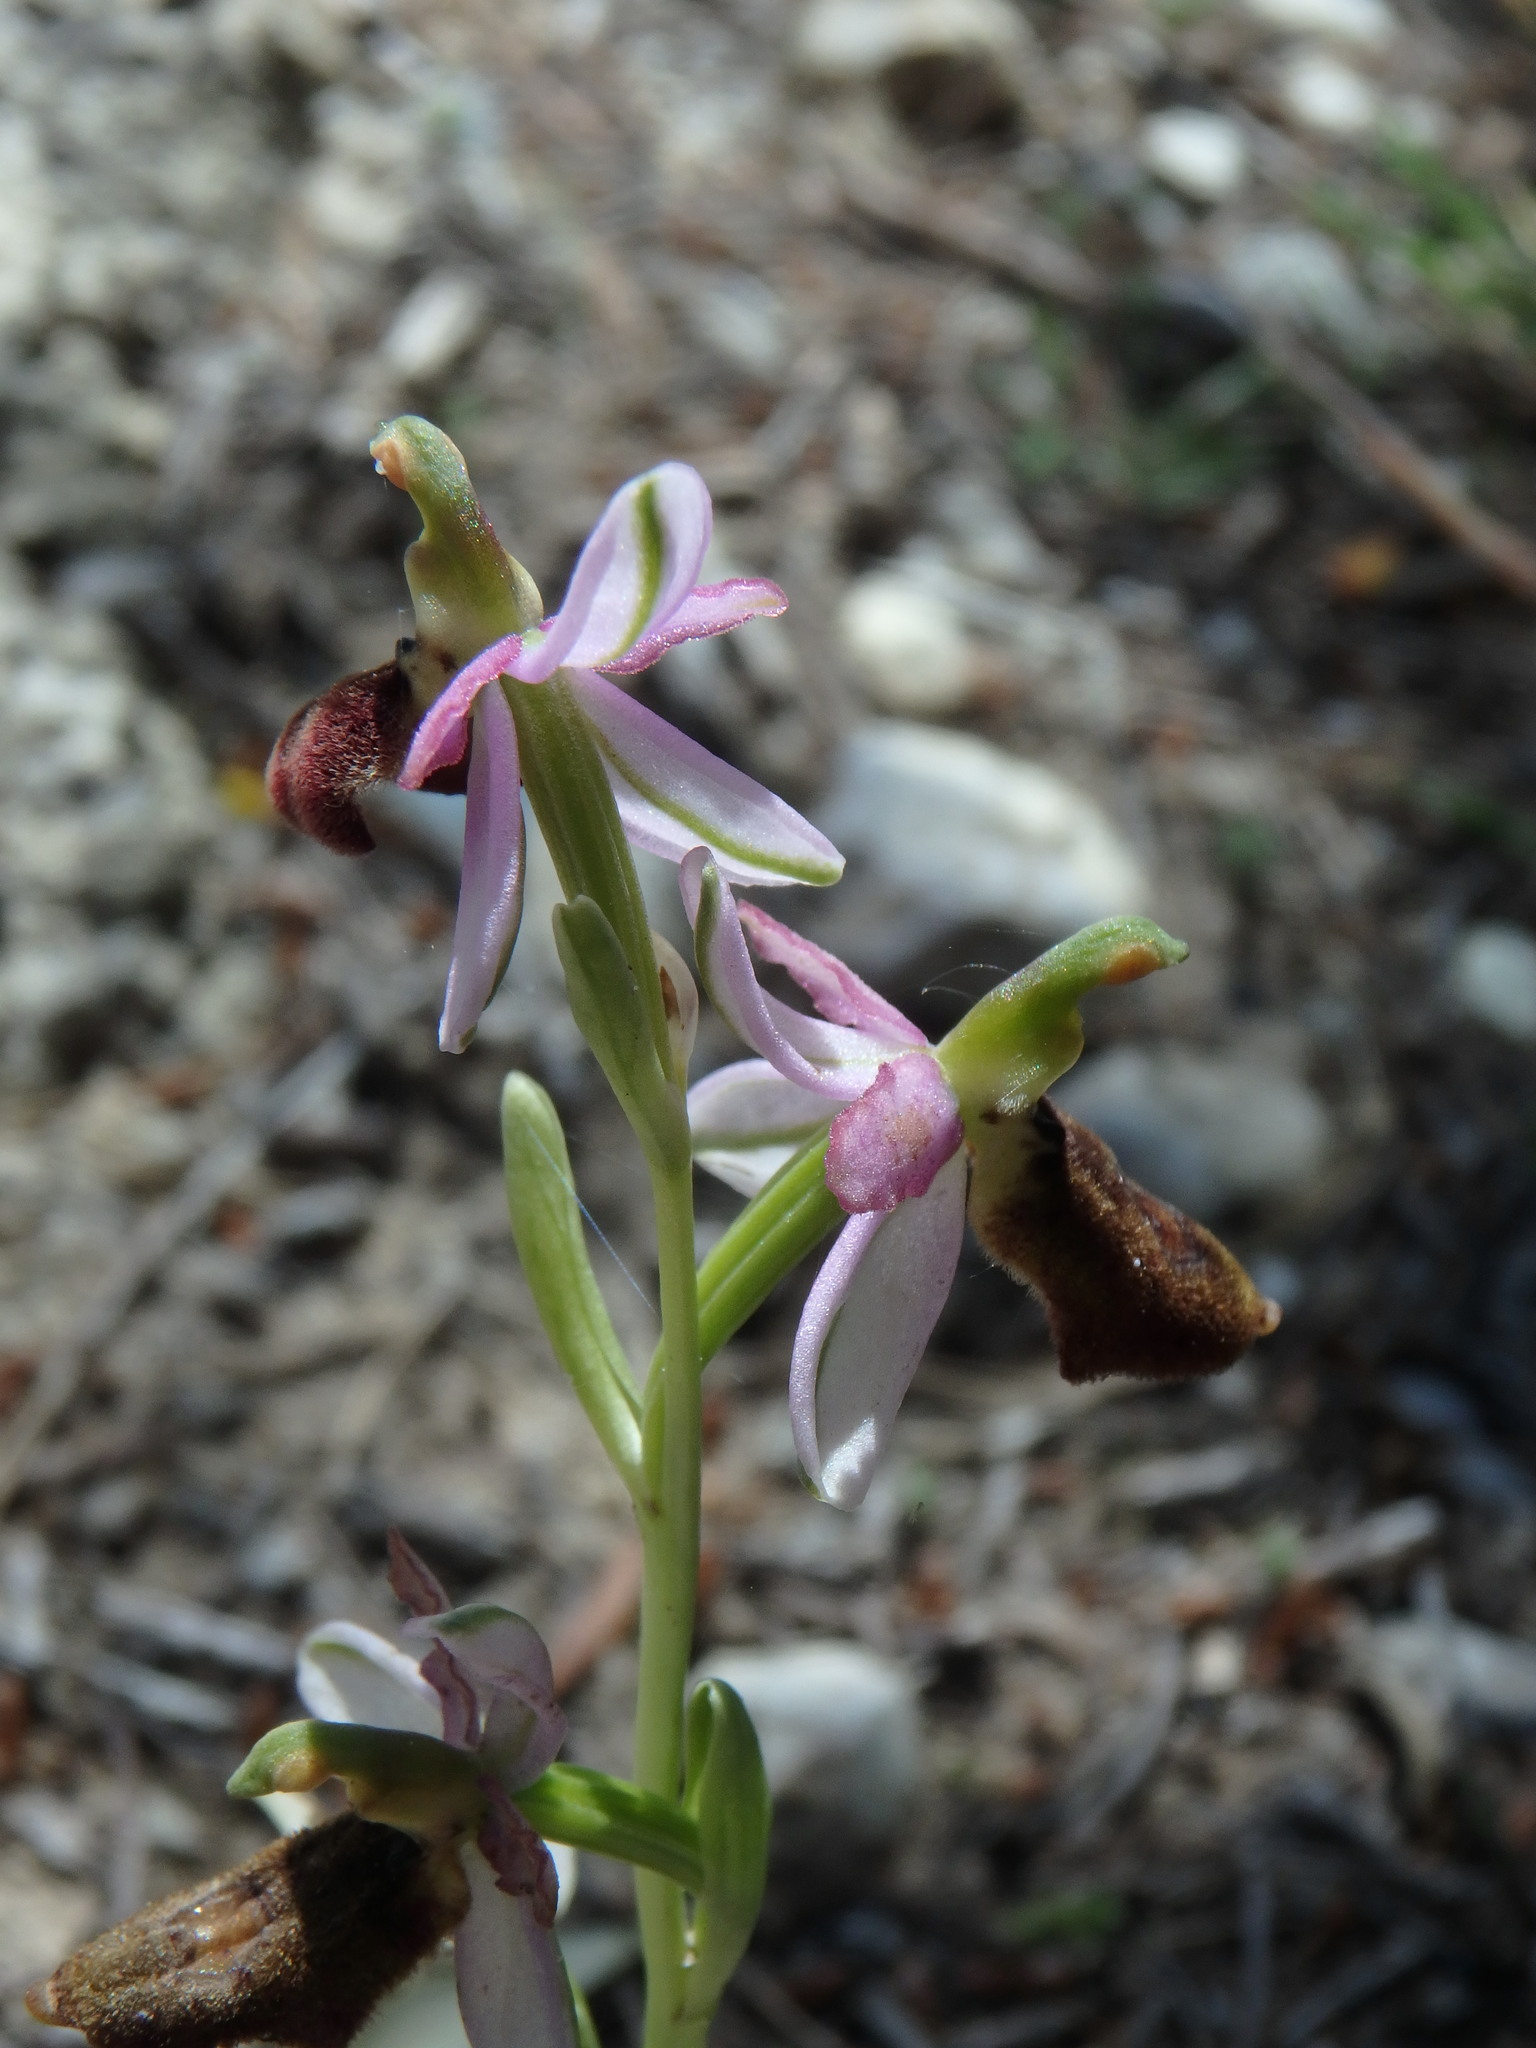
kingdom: Plantae
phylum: Tracheophyta
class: Liliopsida
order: Asparagales
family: Orchidaceae
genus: Ophrys
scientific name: Ophrys flavicans
